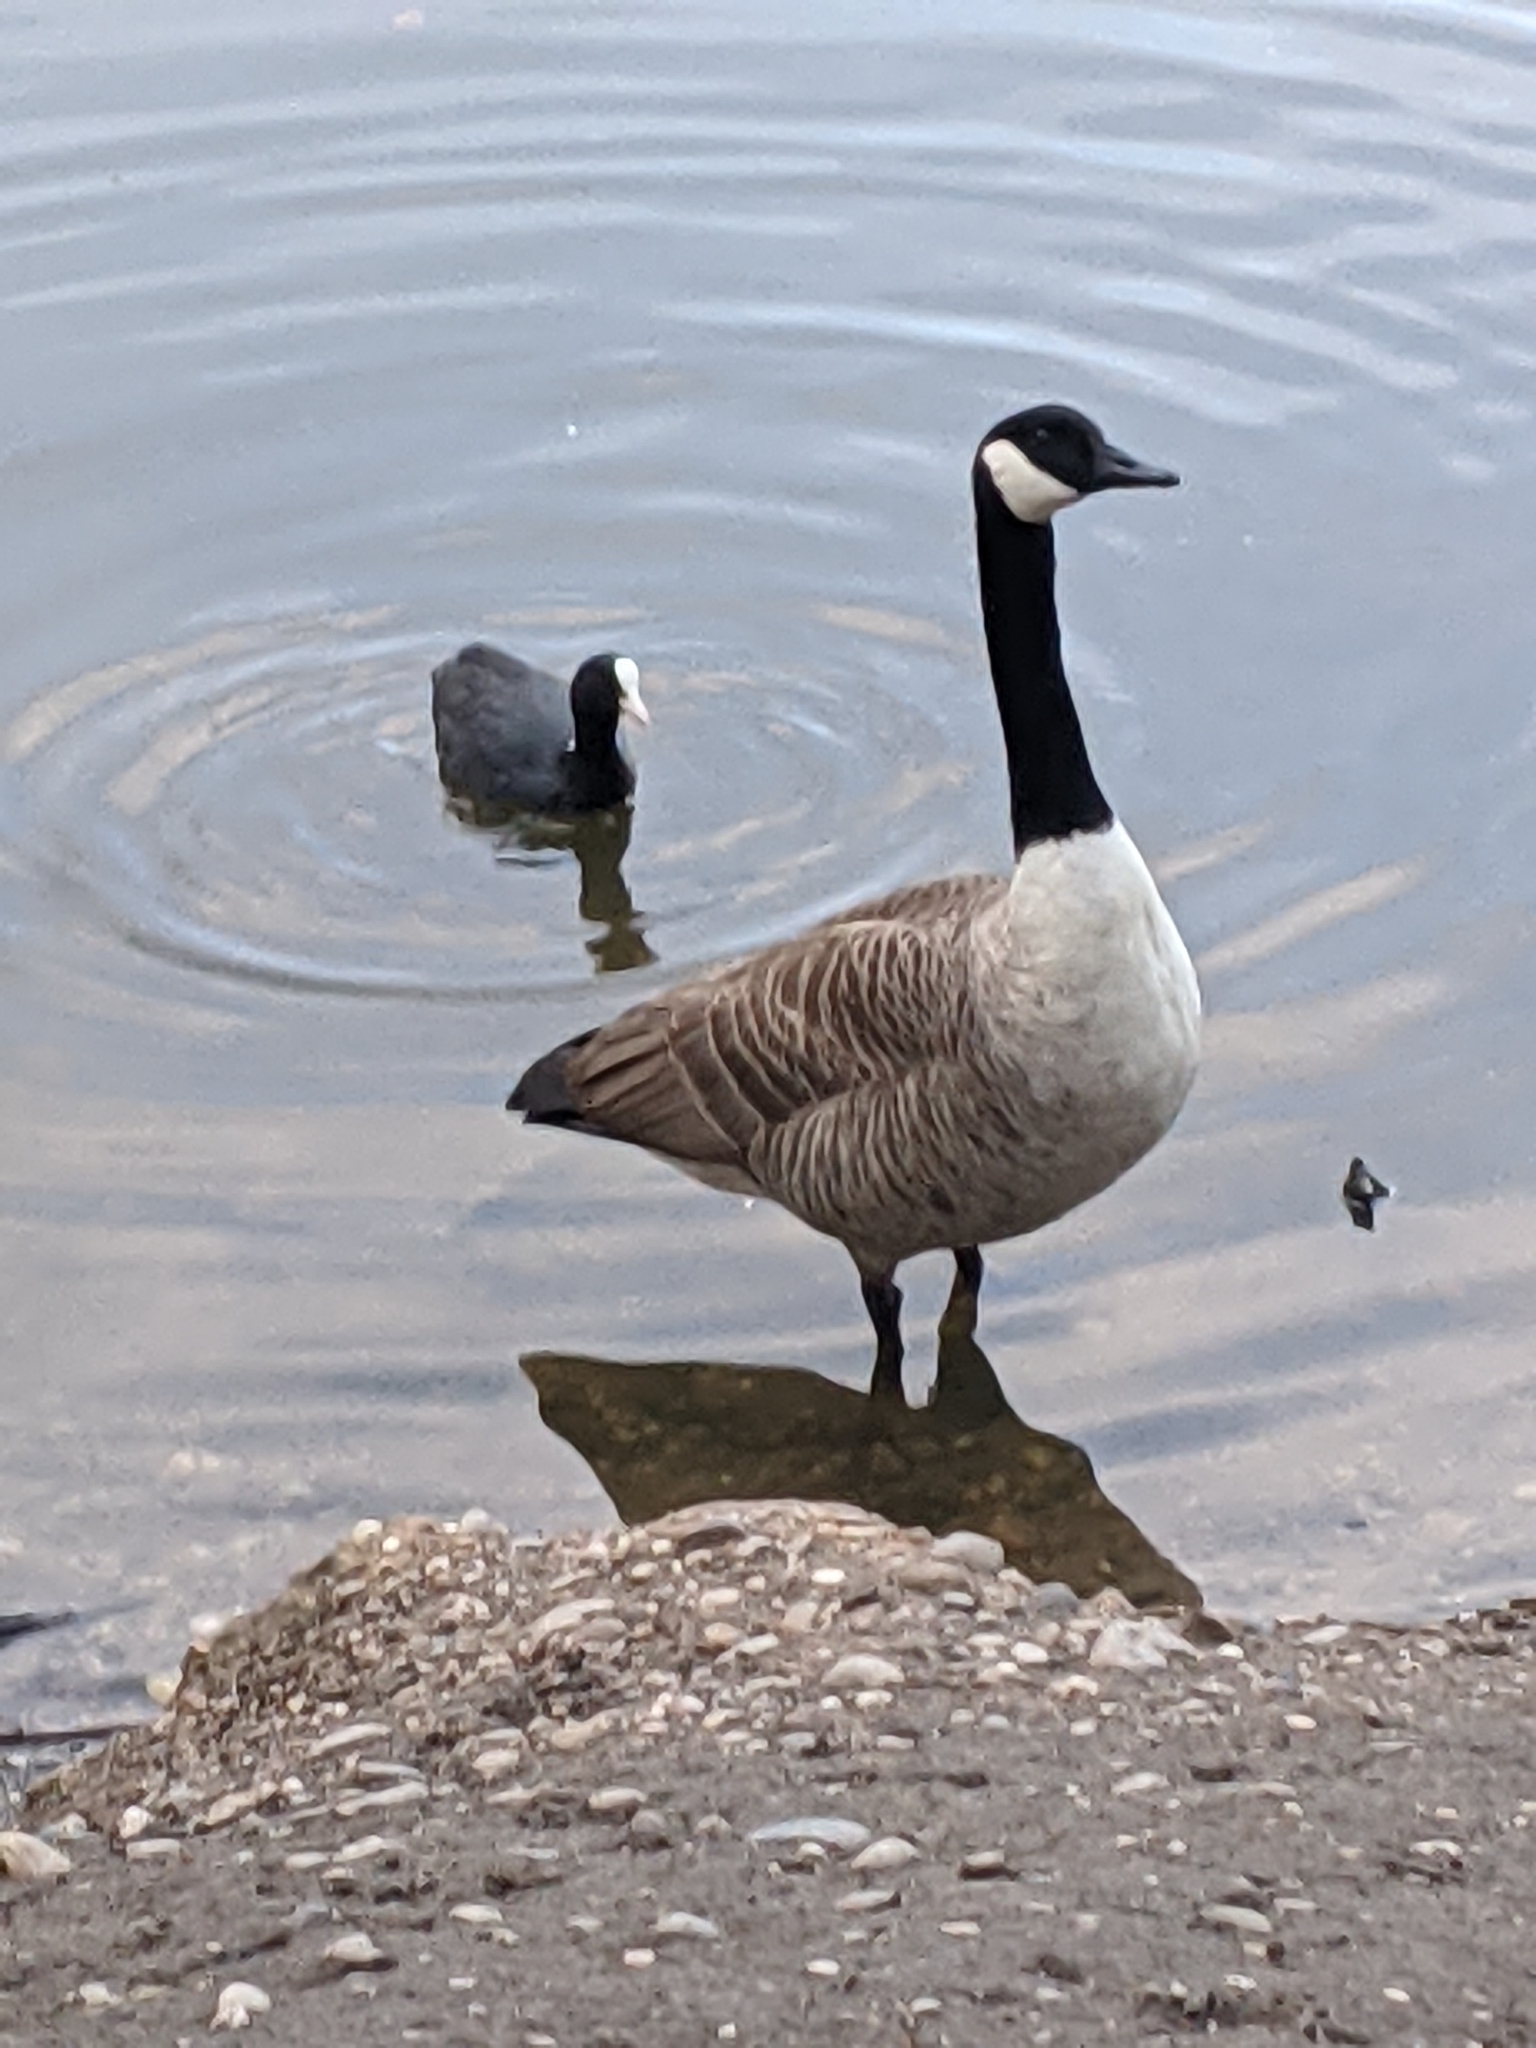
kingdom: Animalia
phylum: Chordata
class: Aves
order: Anseriformes
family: Anatidae
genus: Branta
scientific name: Branta canadensis
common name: Canada goose
